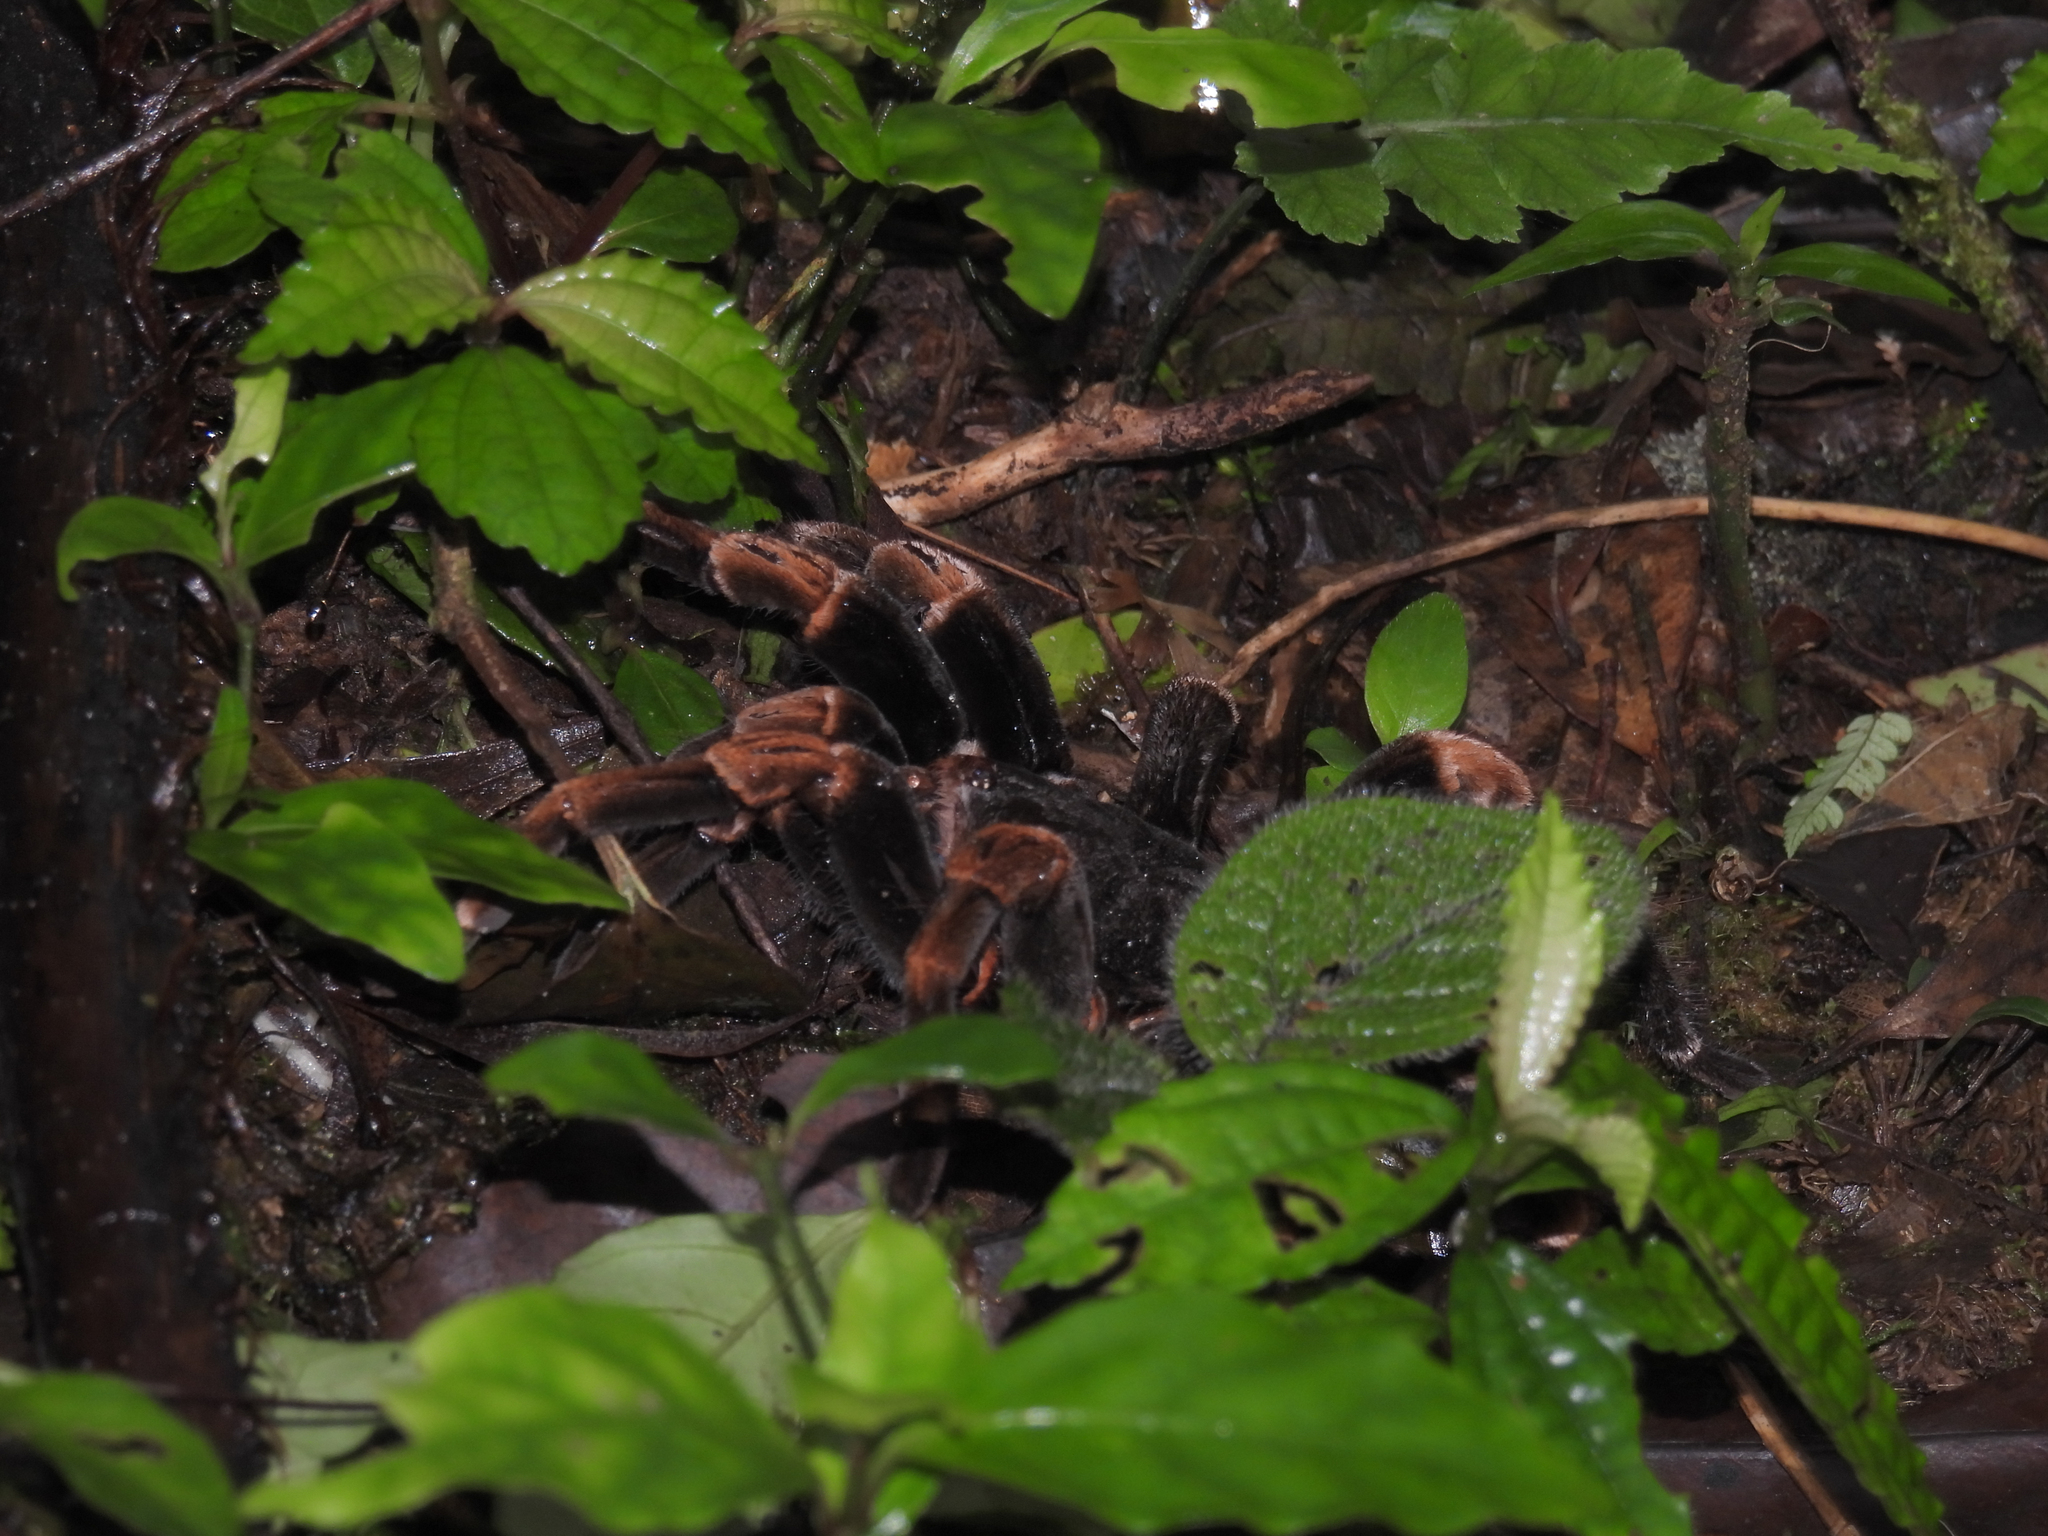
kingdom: Animalia
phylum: Arthropoda
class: Arachnida
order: Araneae
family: Theraphosidae
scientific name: Theraphosidae
